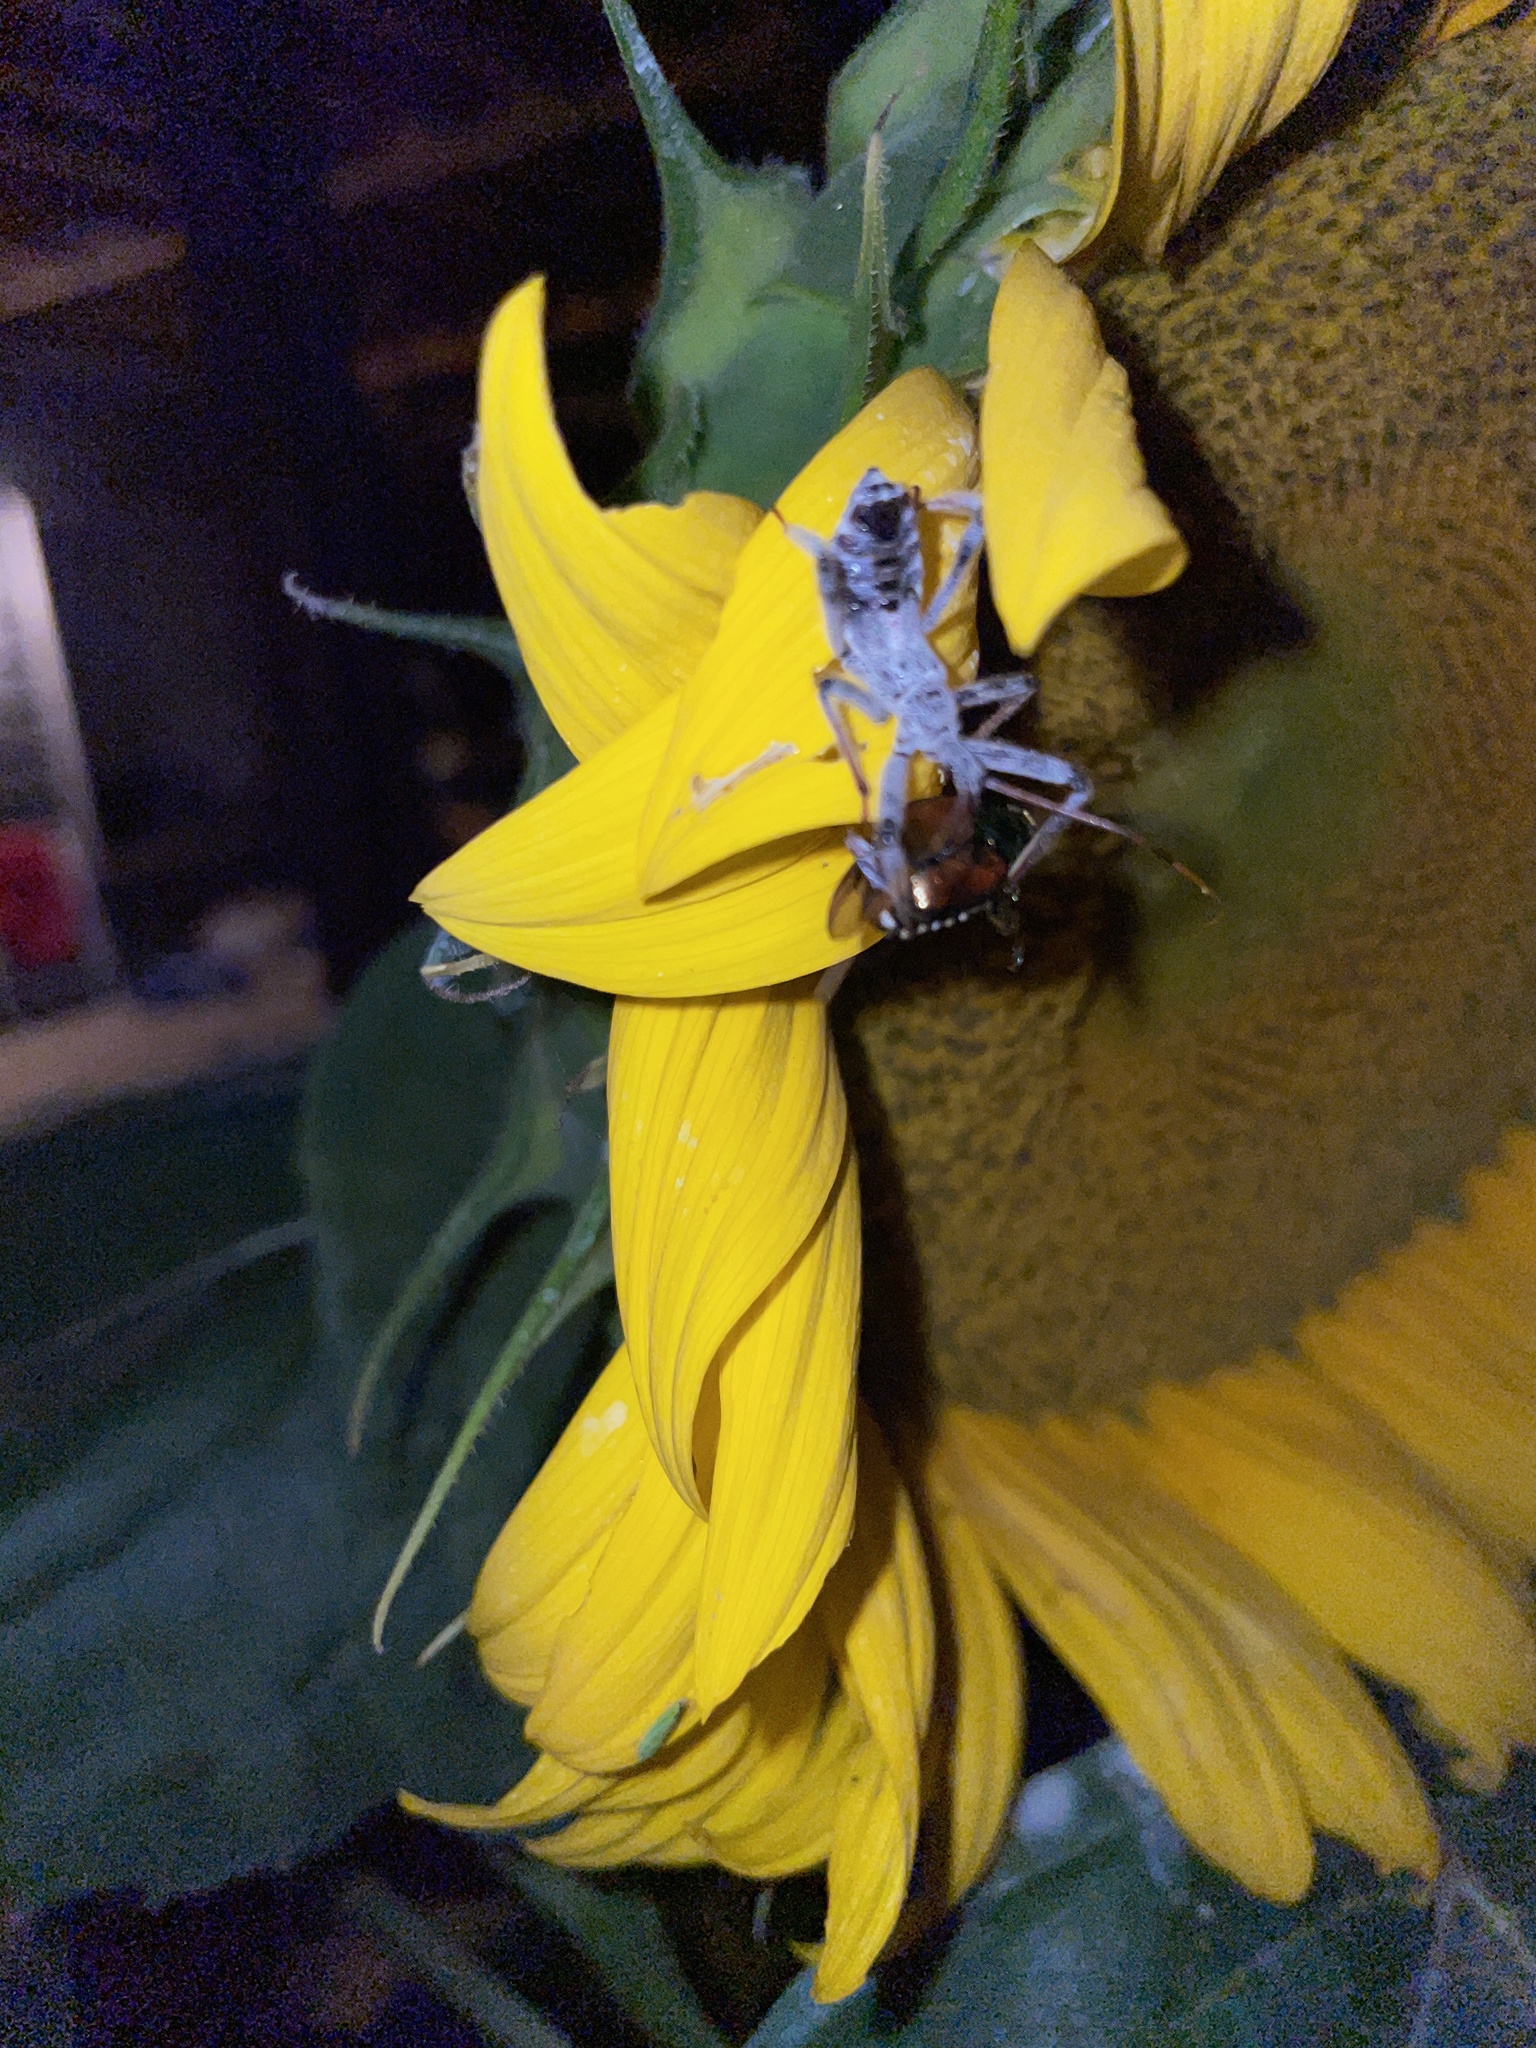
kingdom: Animalia
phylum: Arthropoda
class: Insecta
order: Hemiptera
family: Reduviidae
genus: Arilus
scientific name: Arilus cristatus
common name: North american wheel bug
